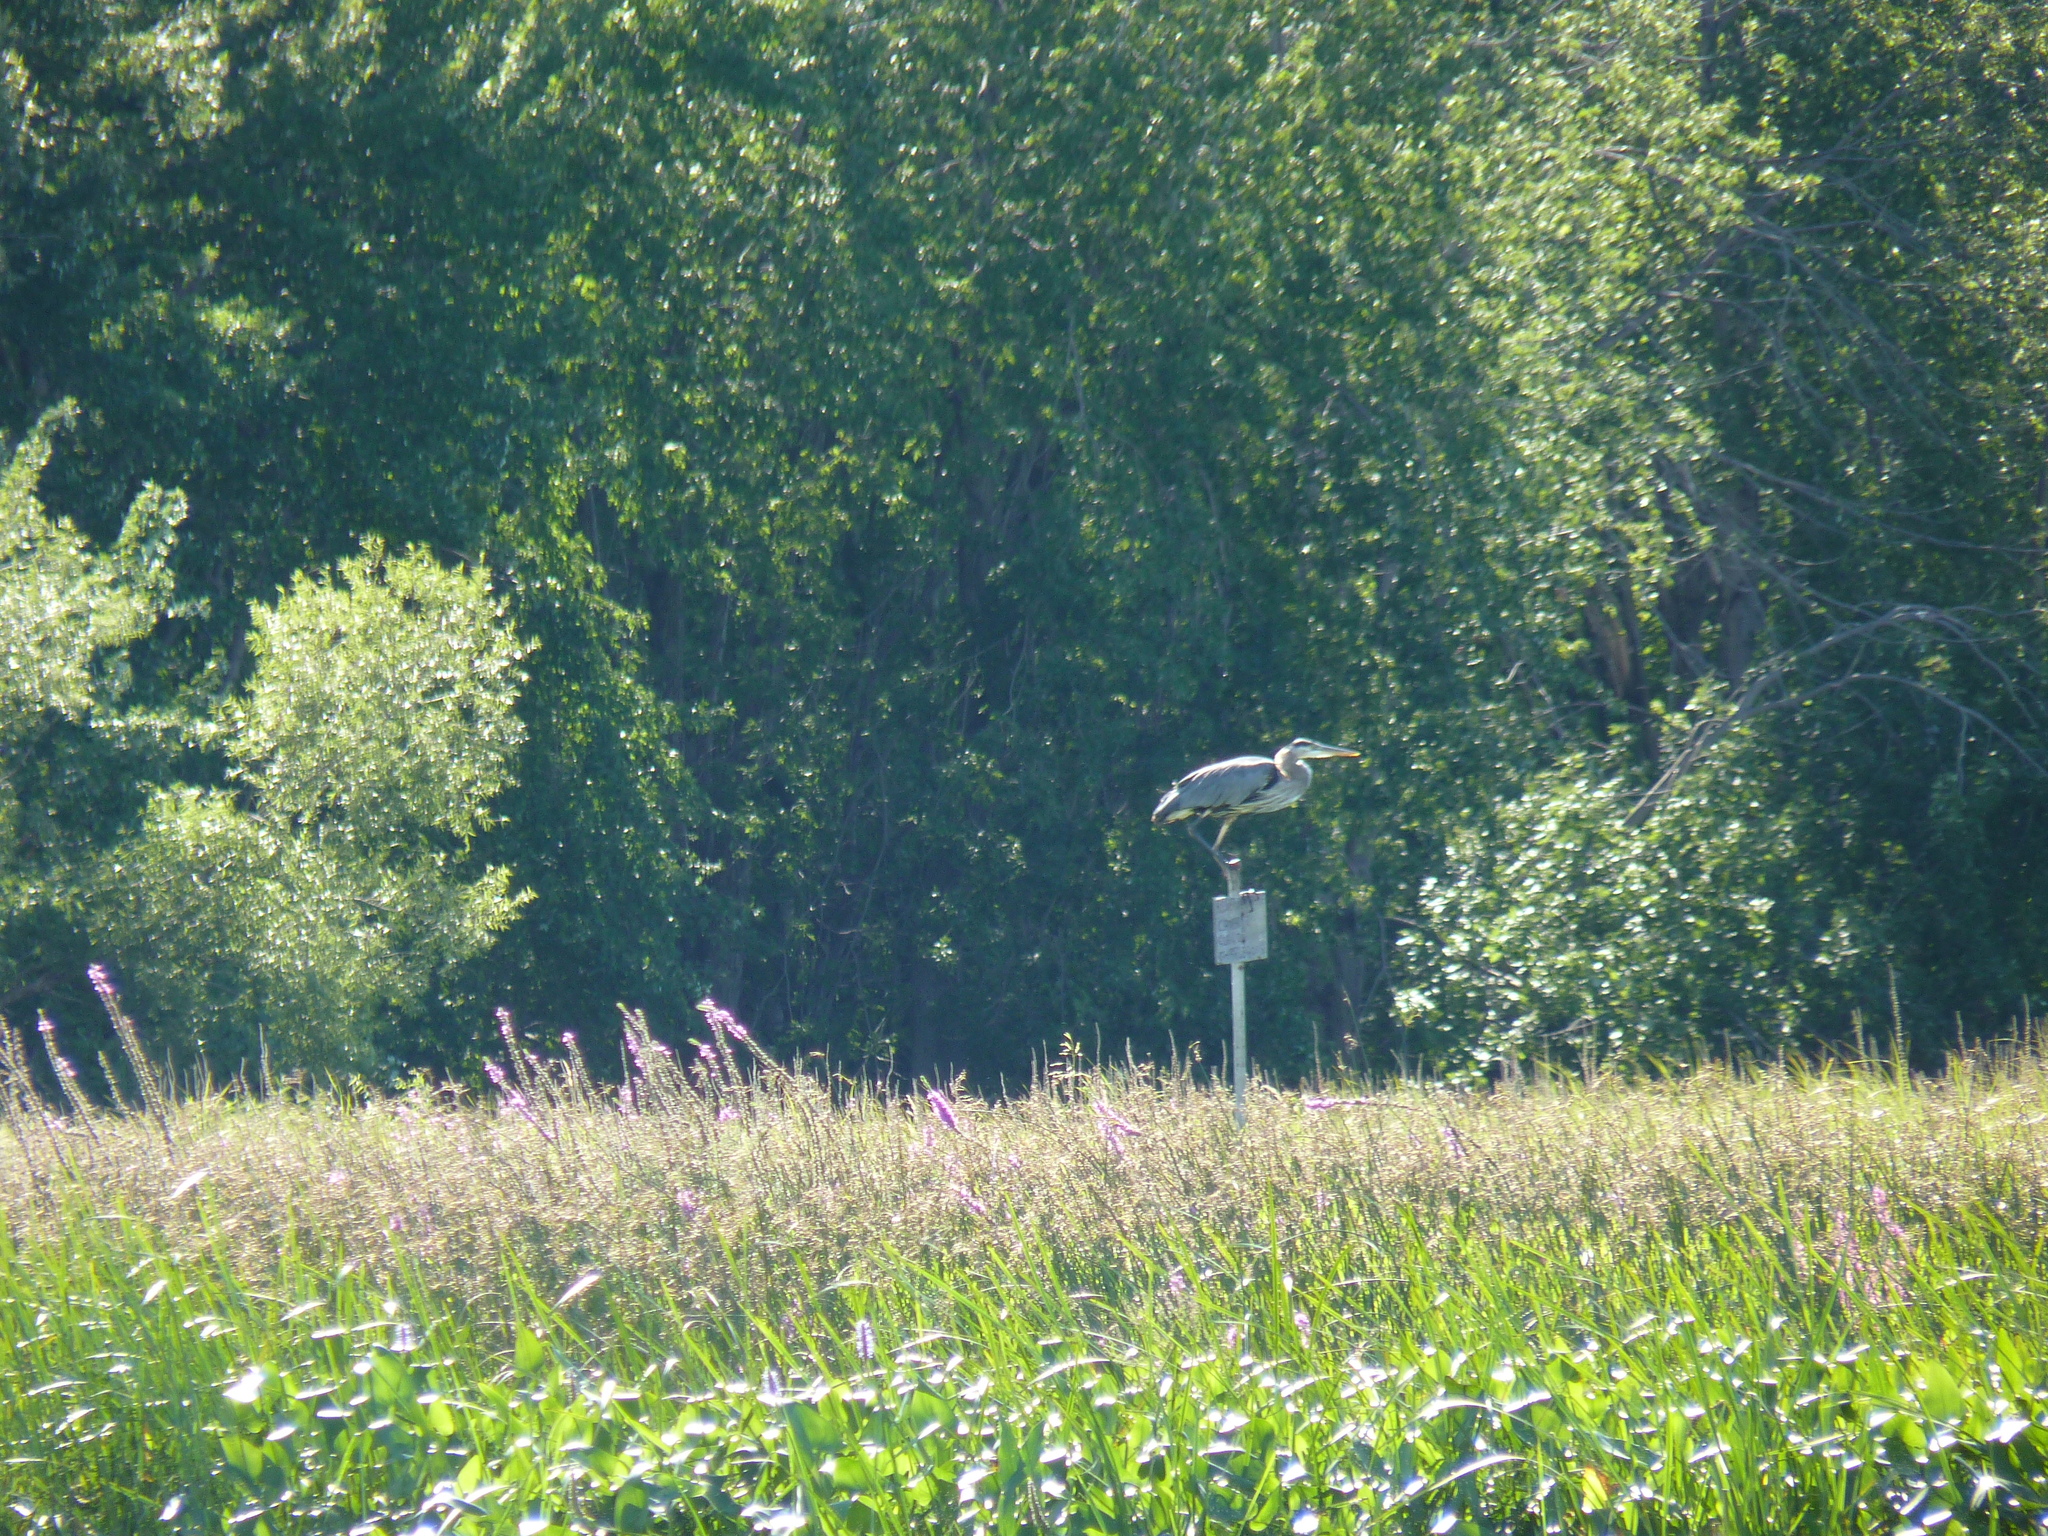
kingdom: Animalia
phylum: Chordata
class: Aves
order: Pelecaniformes
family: Ardeidae
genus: Ardea
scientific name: Ardea herodias
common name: Great blue heron
